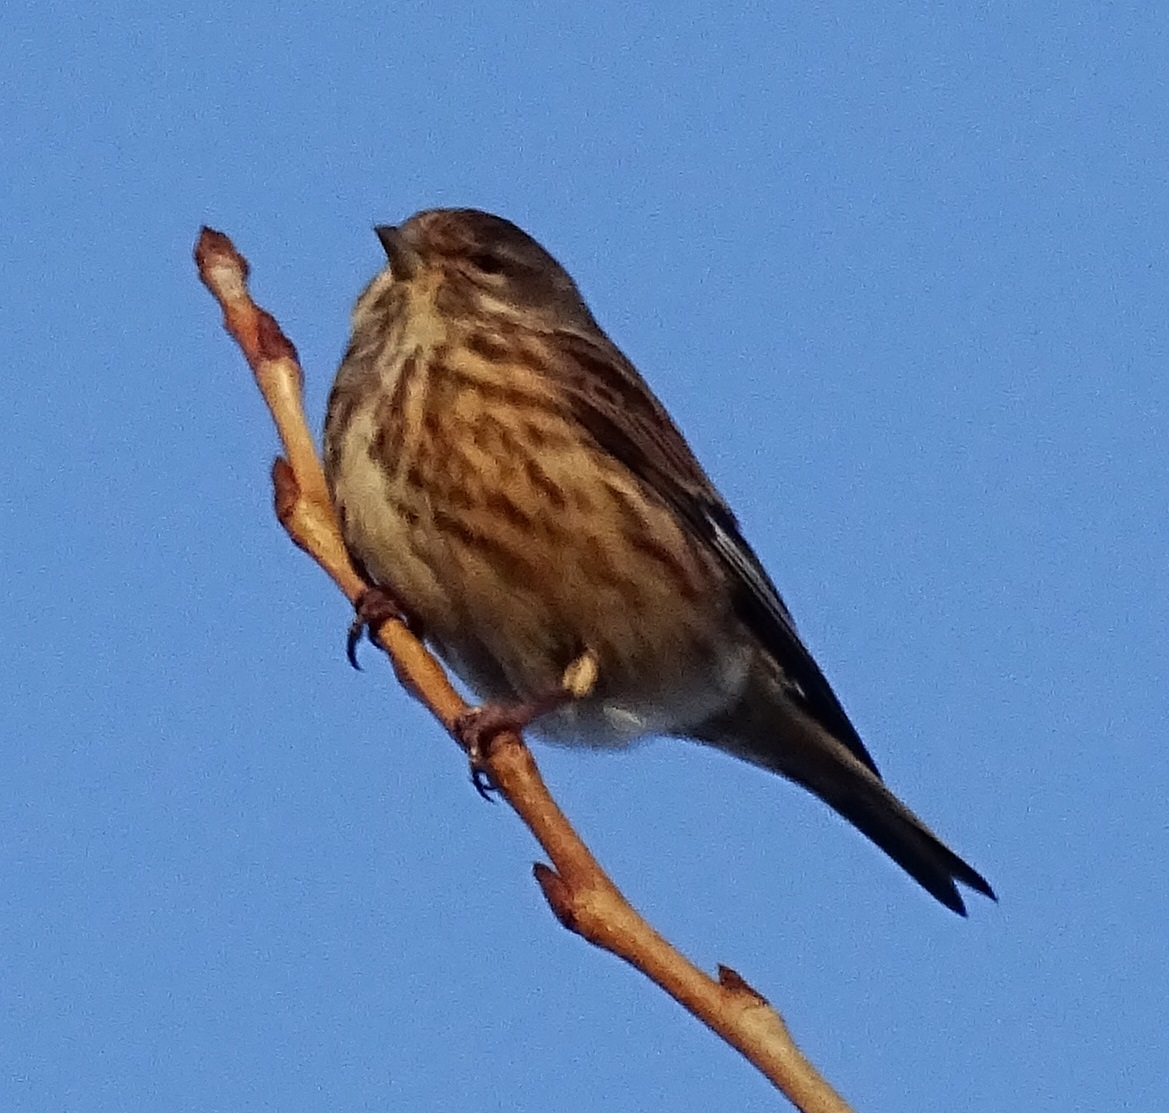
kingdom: Animalia
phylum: Chordata
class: Aves
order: Passeriformes
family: Fringillidae
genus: Linaria
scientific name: Linaria cannabina
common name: Common linnet
